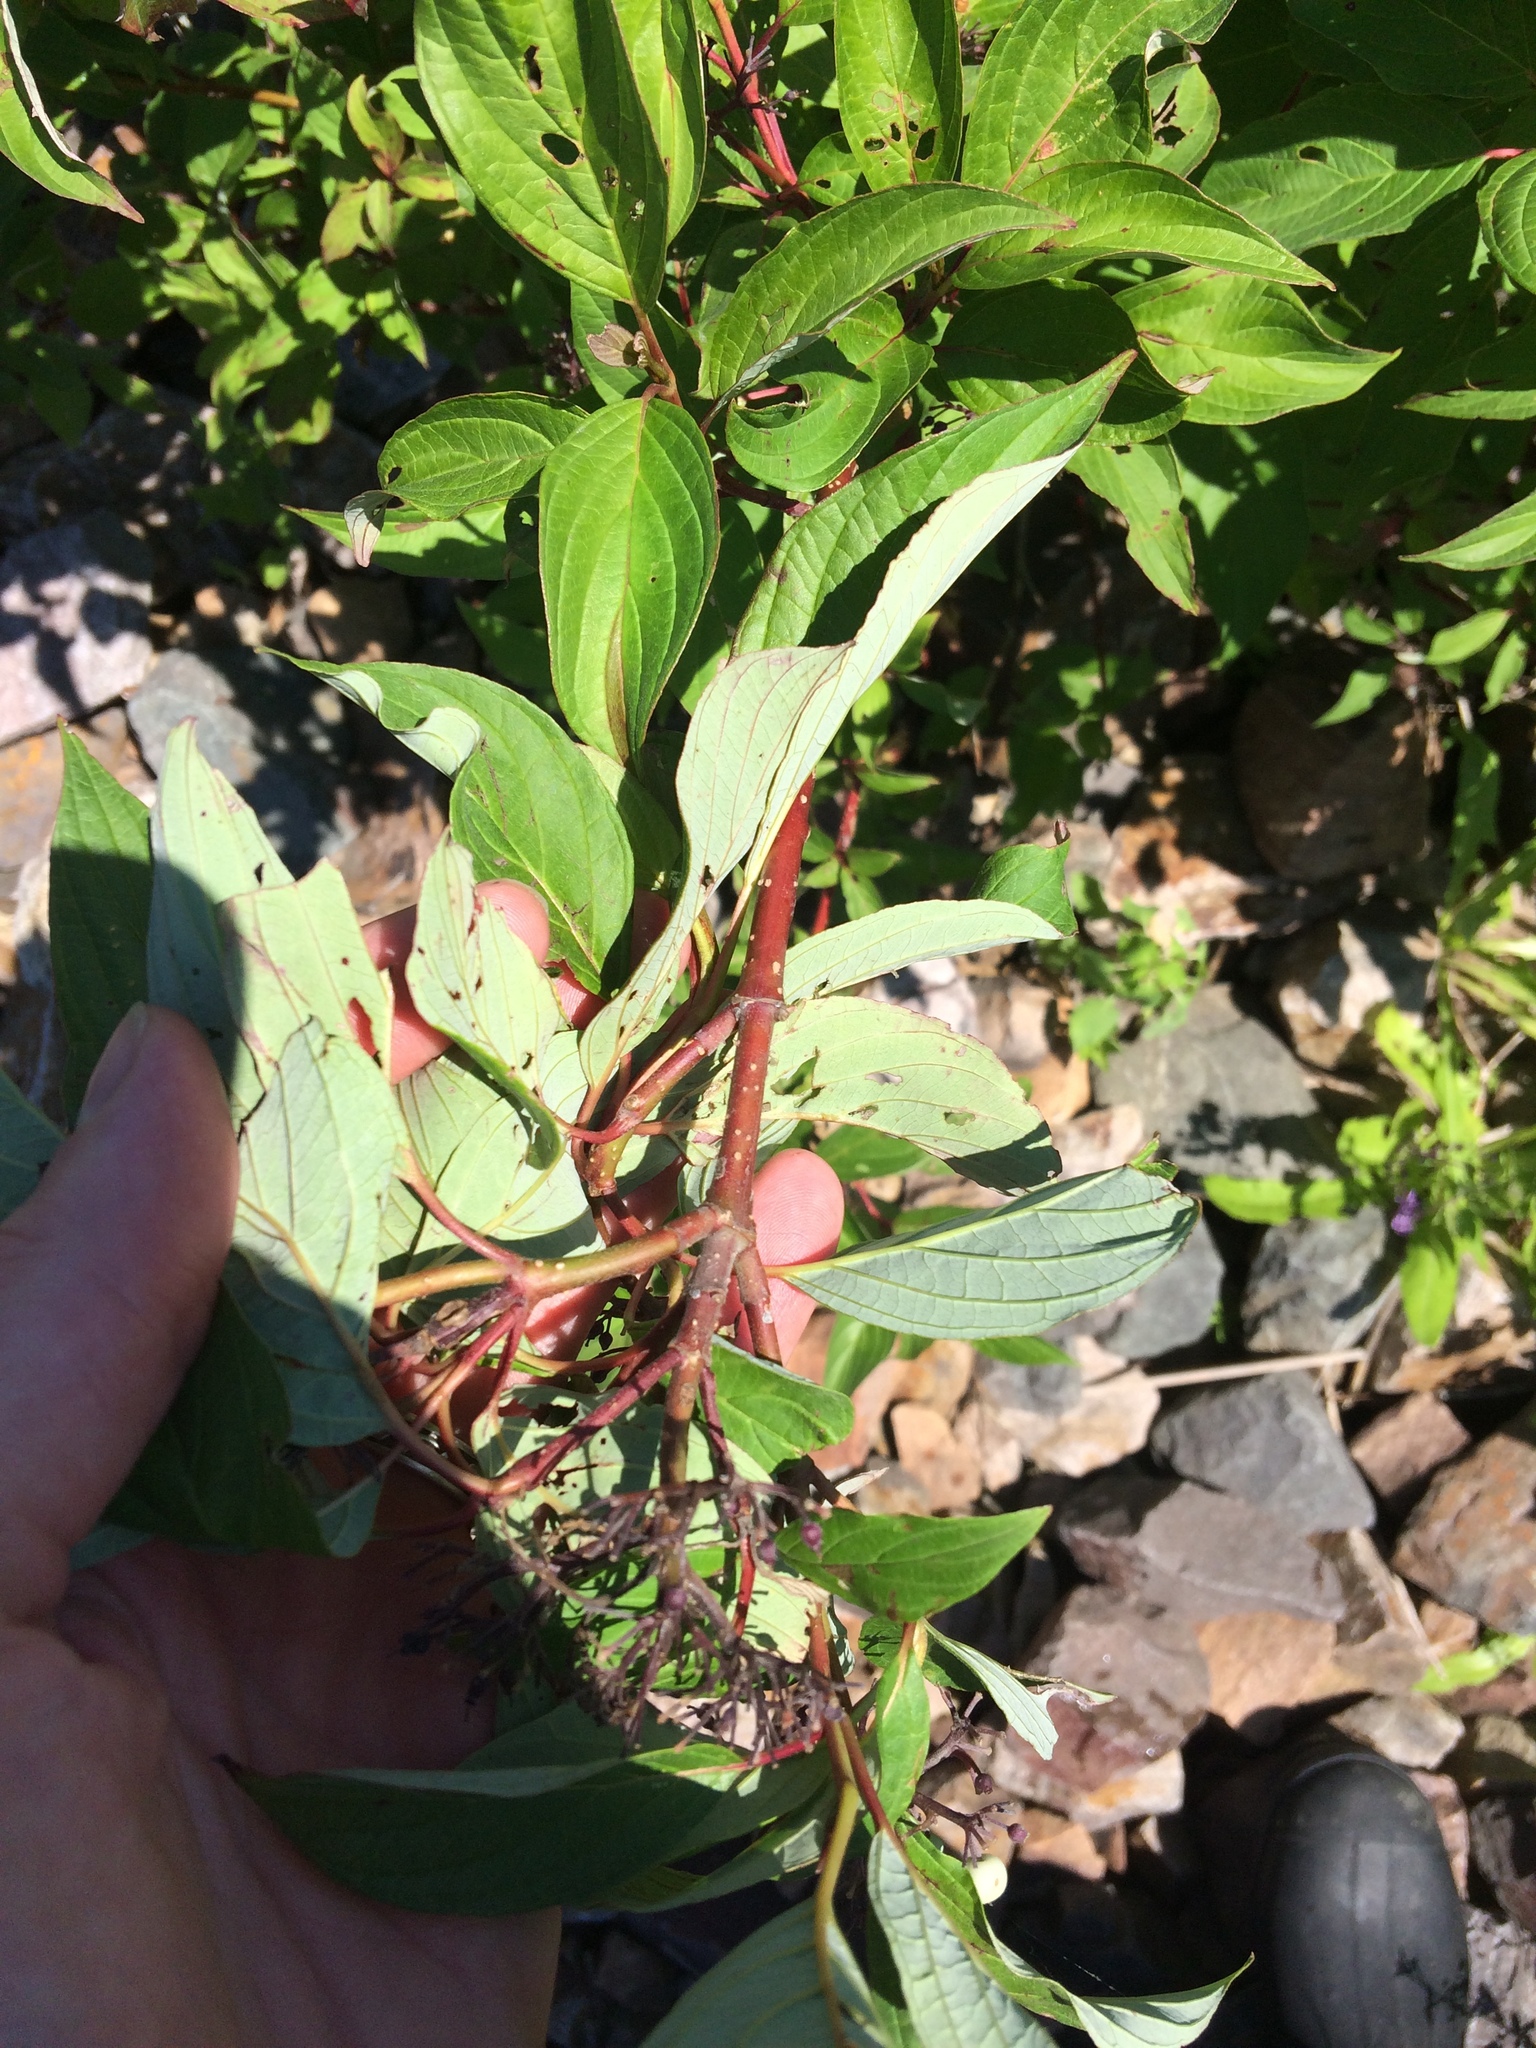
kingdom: Plantae
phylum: Tracheophyta
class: Magnoliopsida
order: Cornales
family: Cornaceae
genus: Cornus
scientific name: Cornus sericea
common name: Red-osier dogwood
